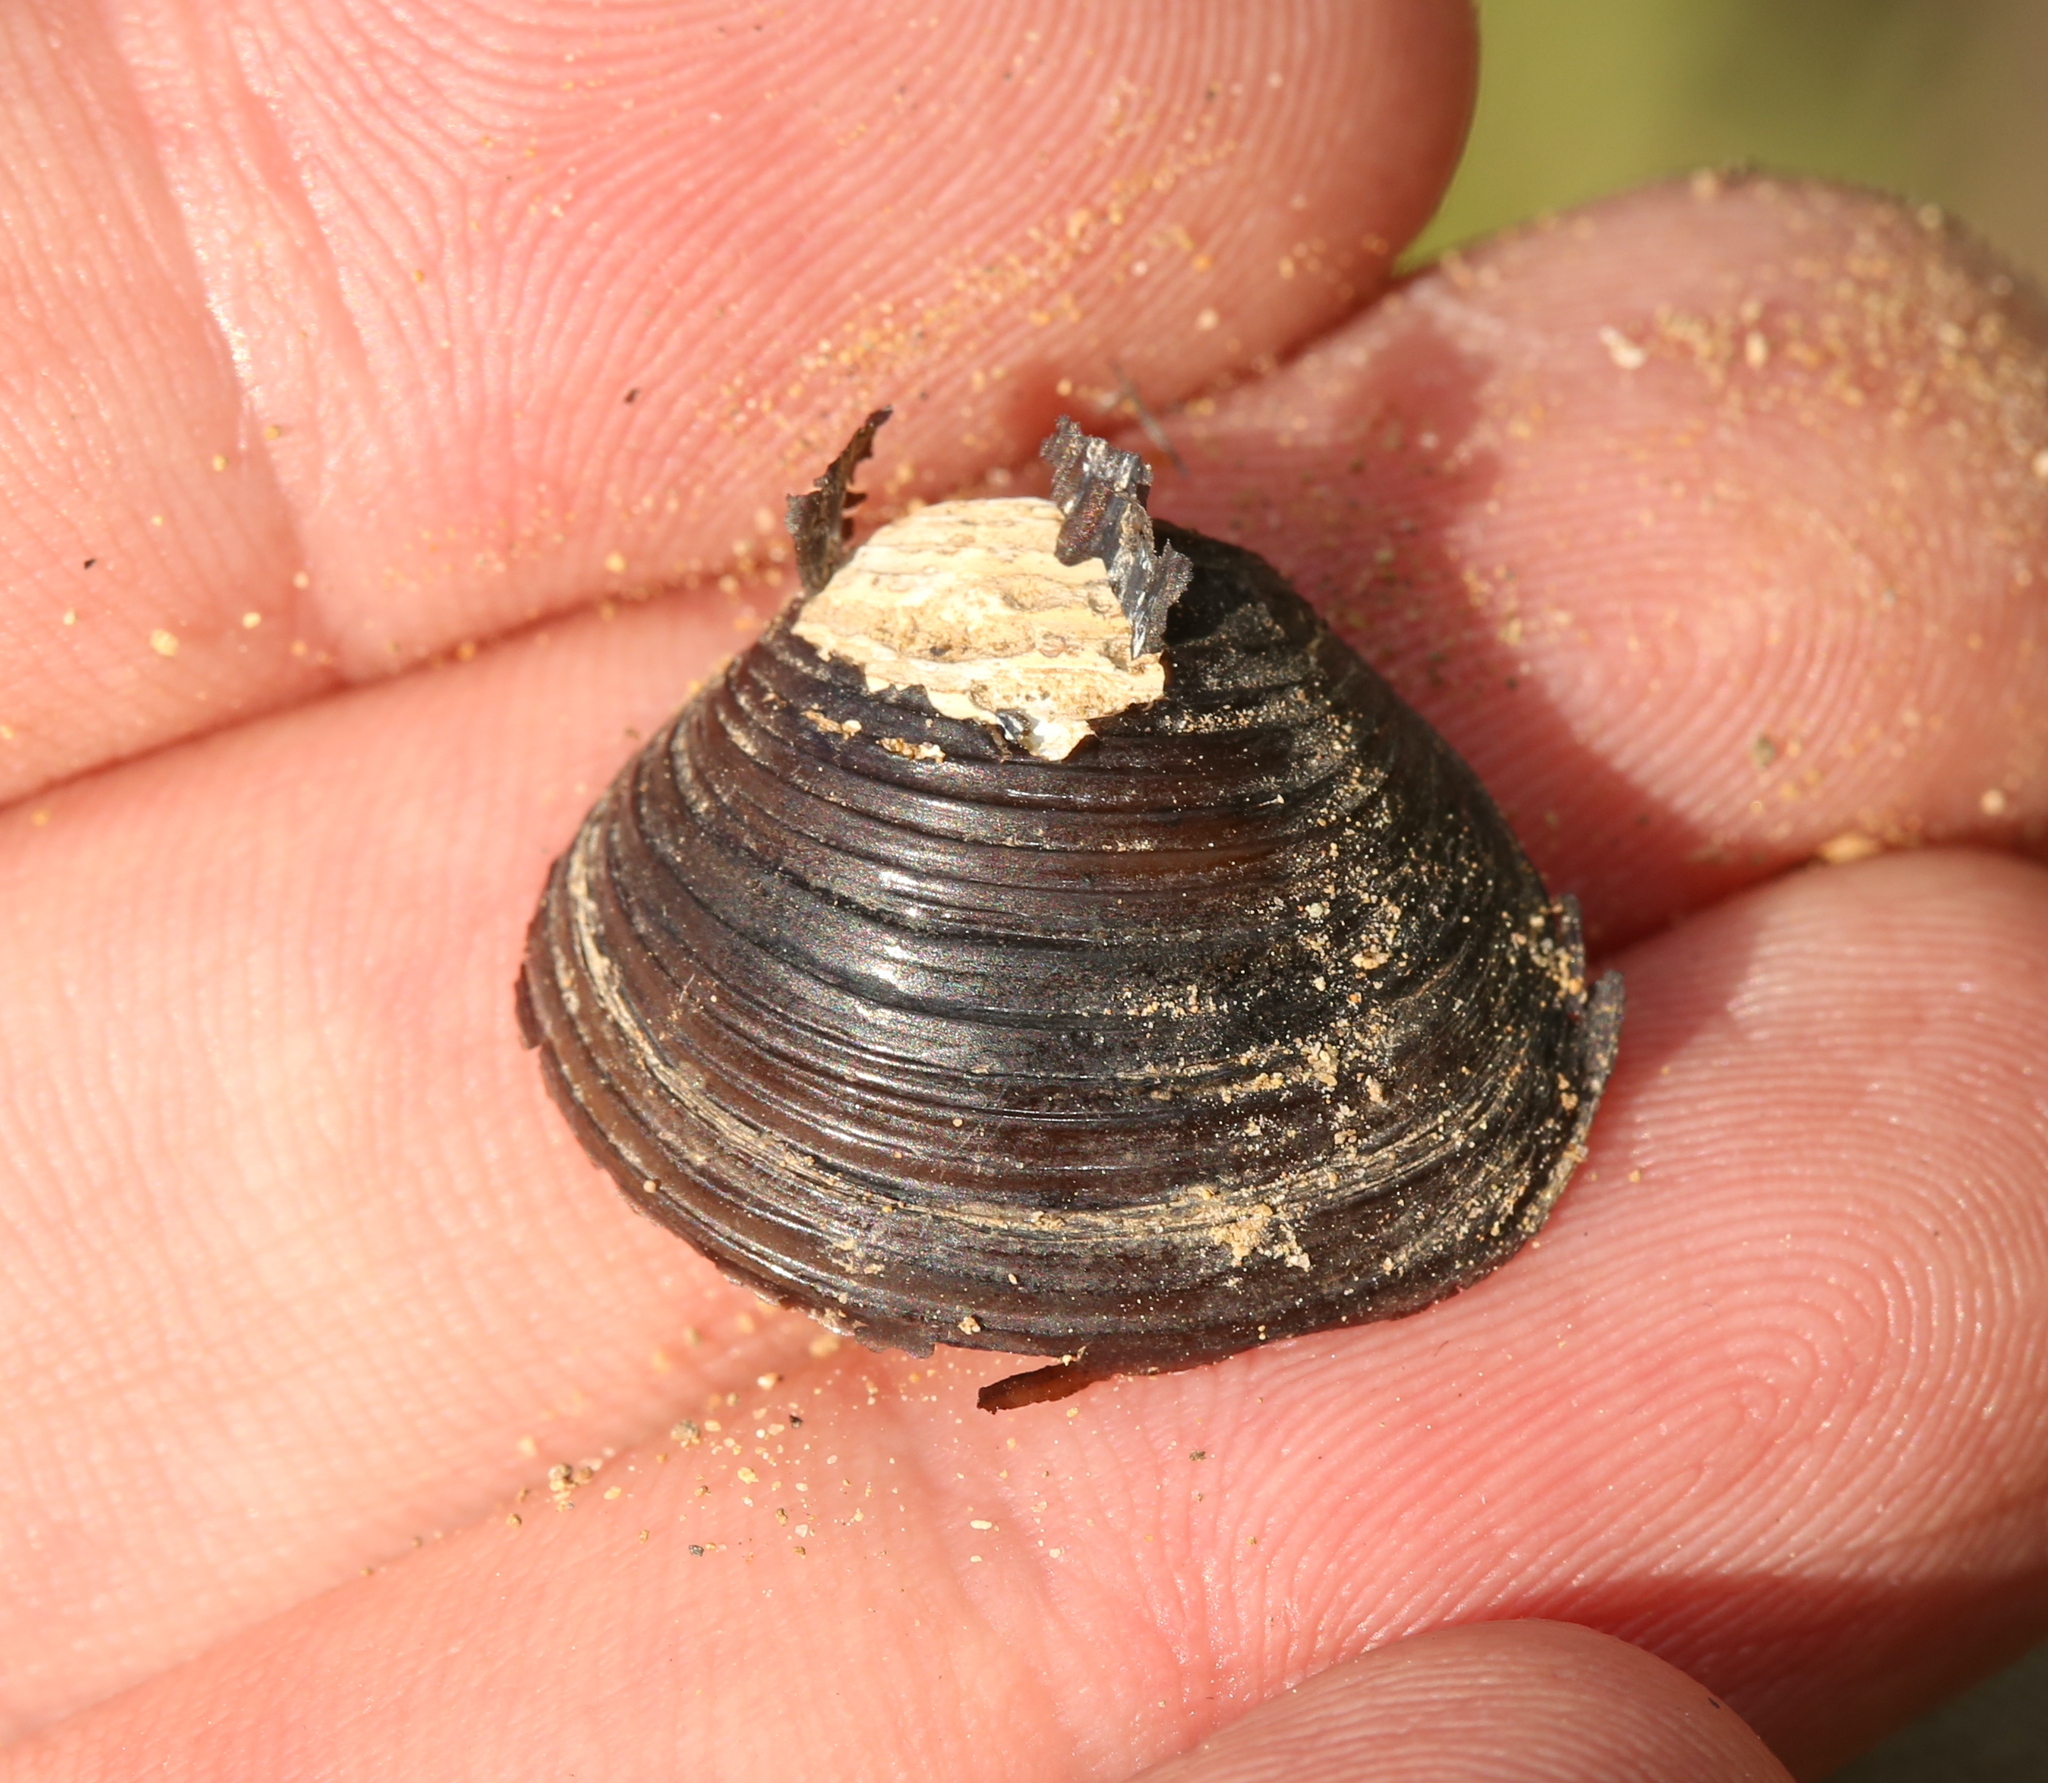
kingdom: Animalia
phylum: Mollusca
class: Bivalvia
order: Venerida
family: Cyrenidae
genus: Corbicula
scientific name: Corbicula fluminea
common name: Asian clam
